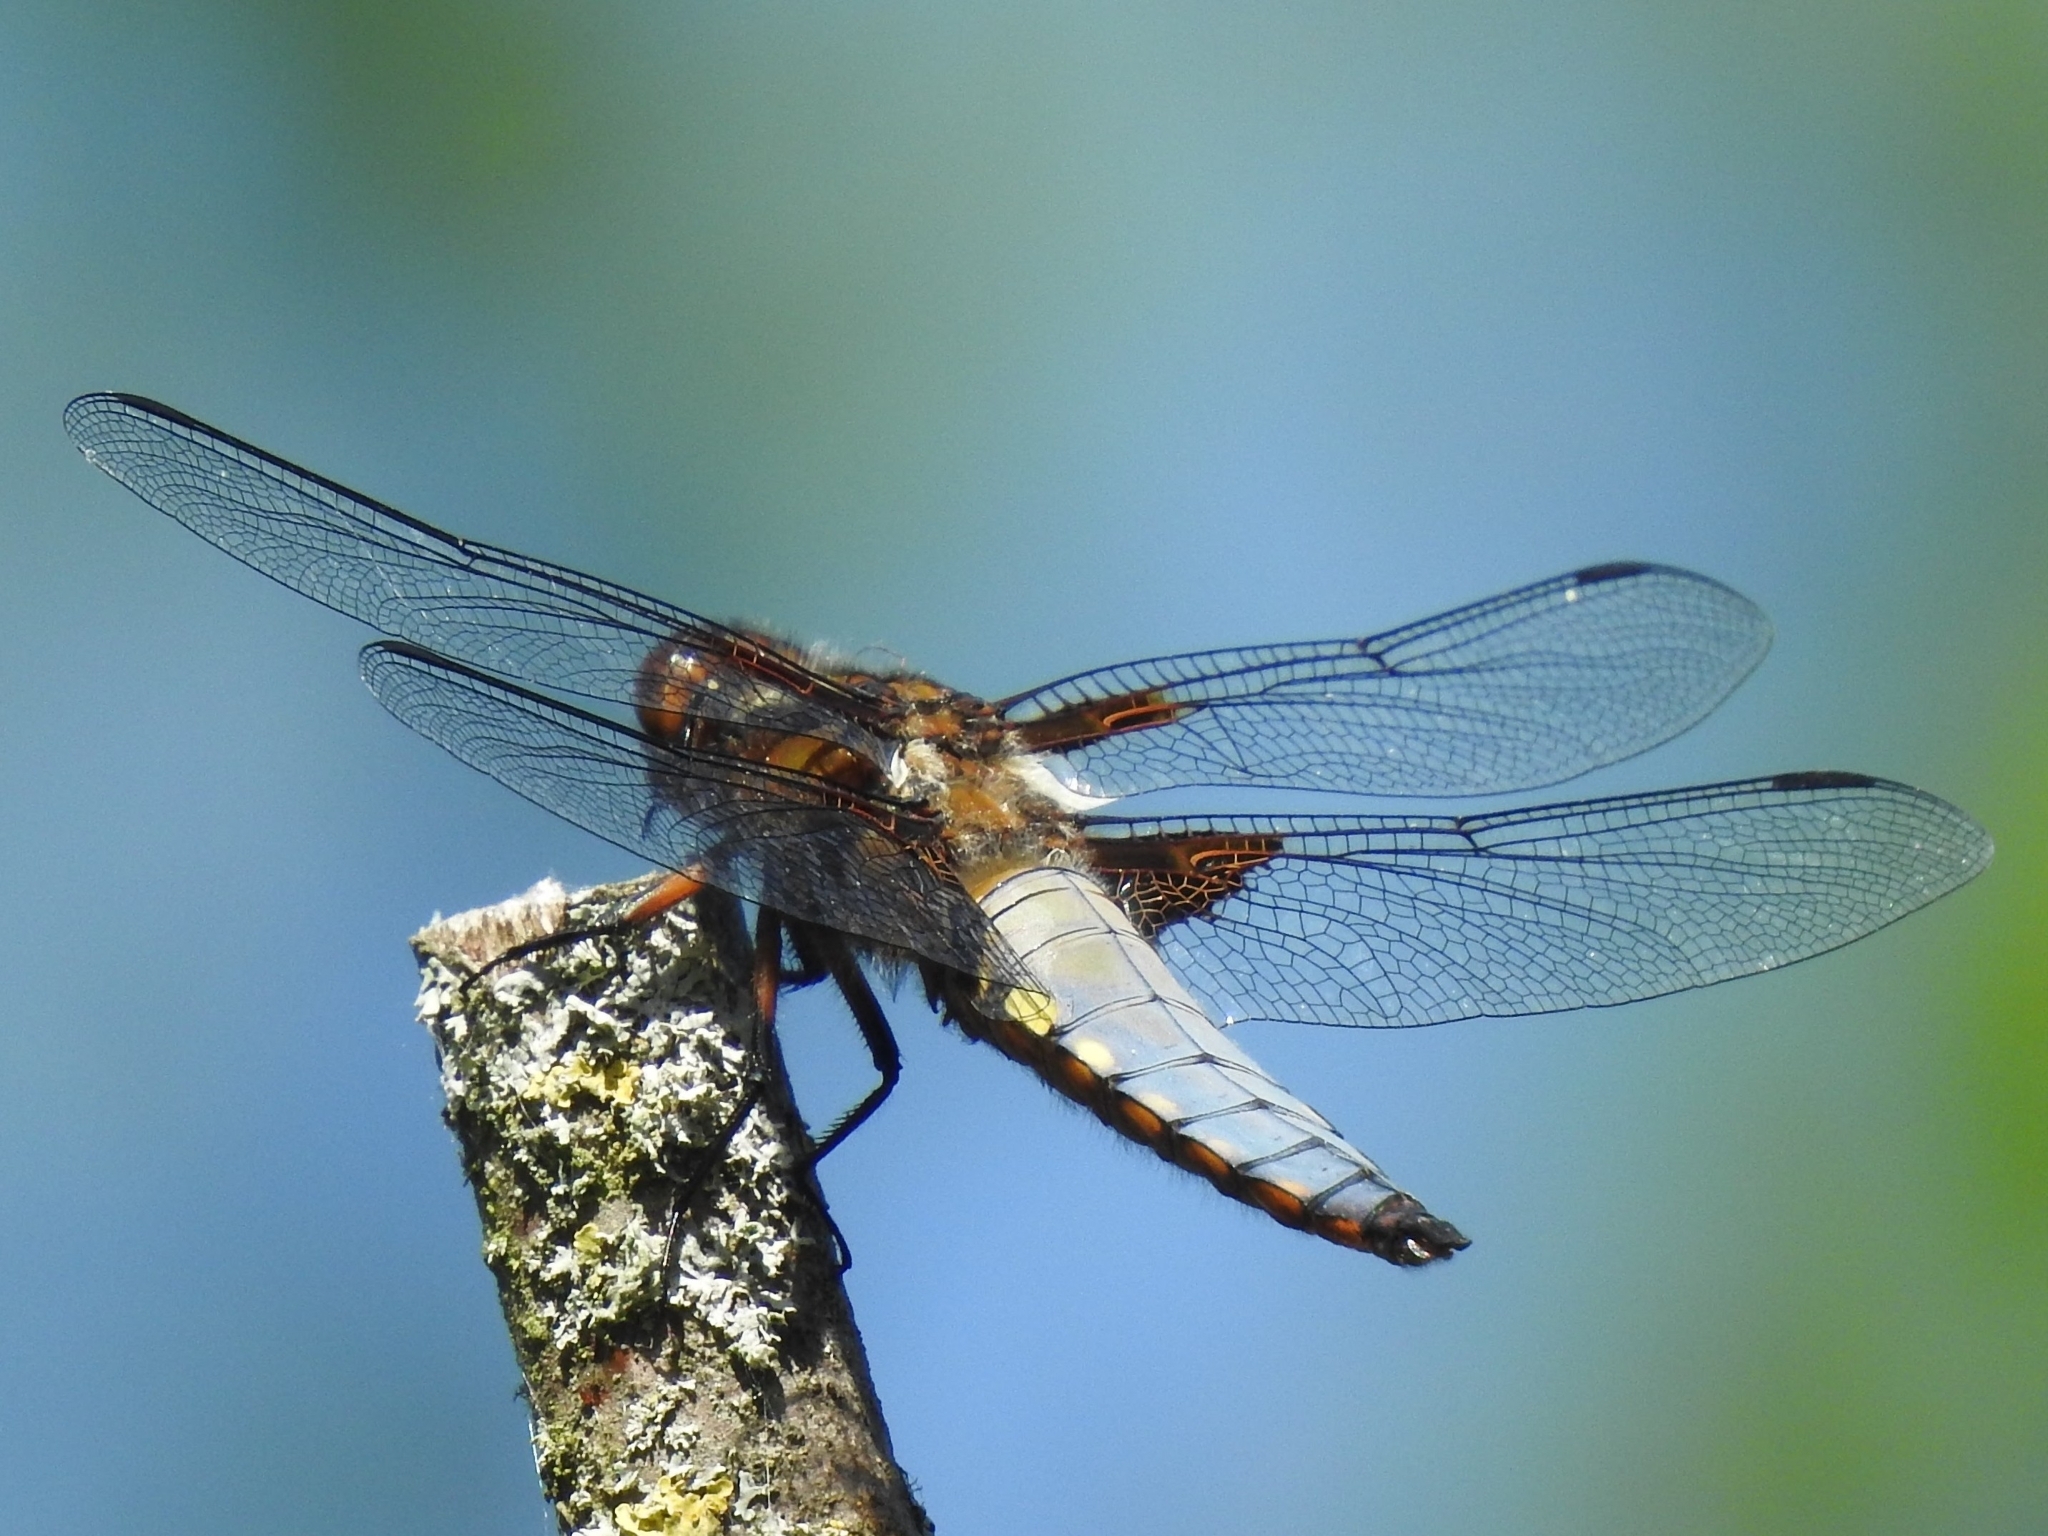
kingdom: Animalia
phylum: Arthropoda
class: Insecta
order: Odonata
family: Libellulidae
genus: Libellula
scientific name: Libellula depressa
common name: Broad-bodied chaser
